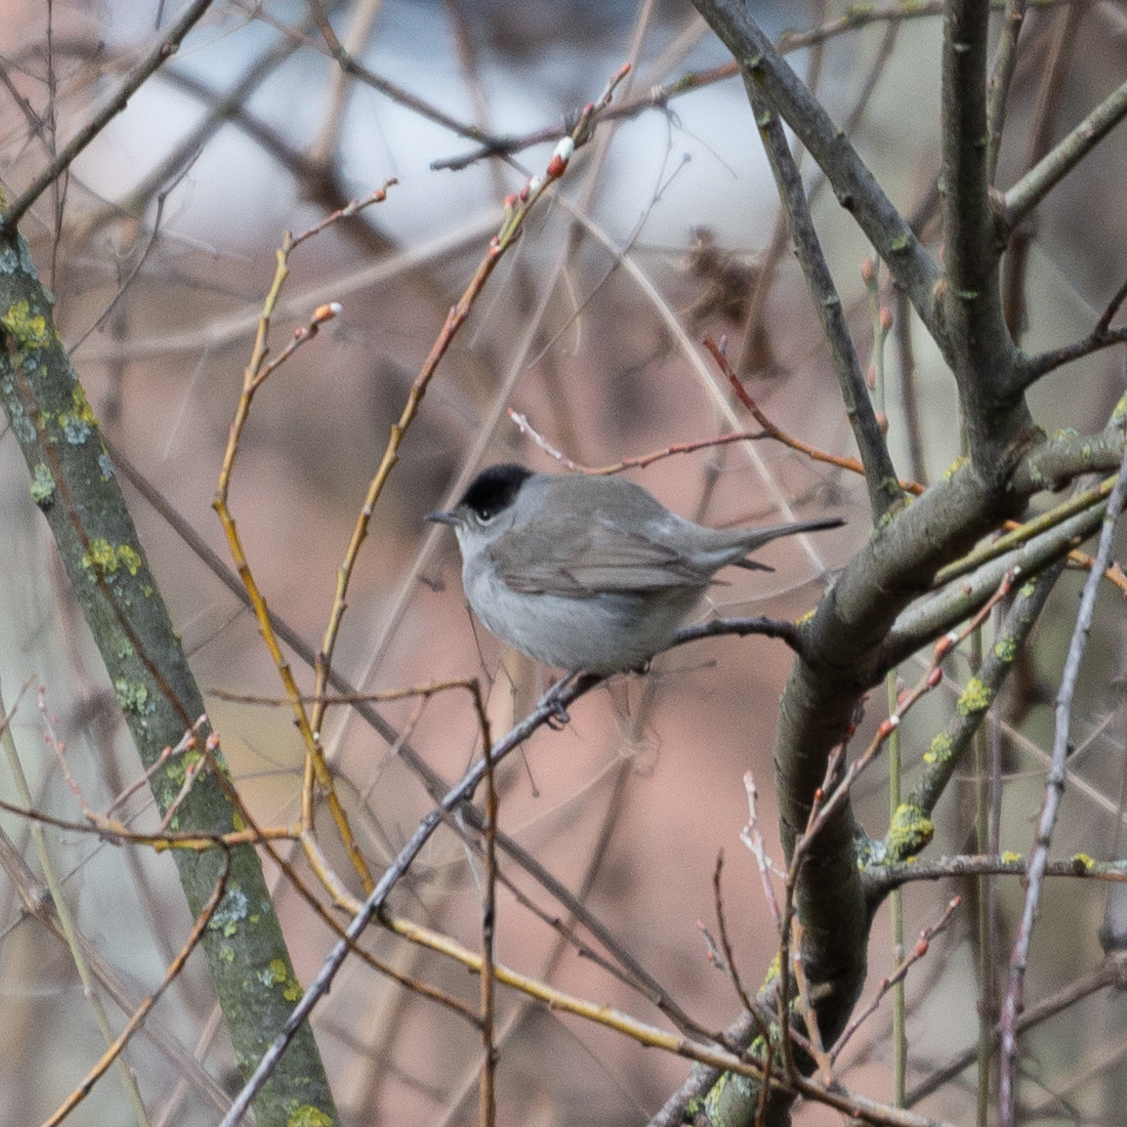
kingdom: Animalia
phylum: Chordata
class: Aves
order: Passeriformes
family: Sylviidae
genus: Sylvia
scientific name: Sylvia atricapilla
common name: Eurasian blackcap
